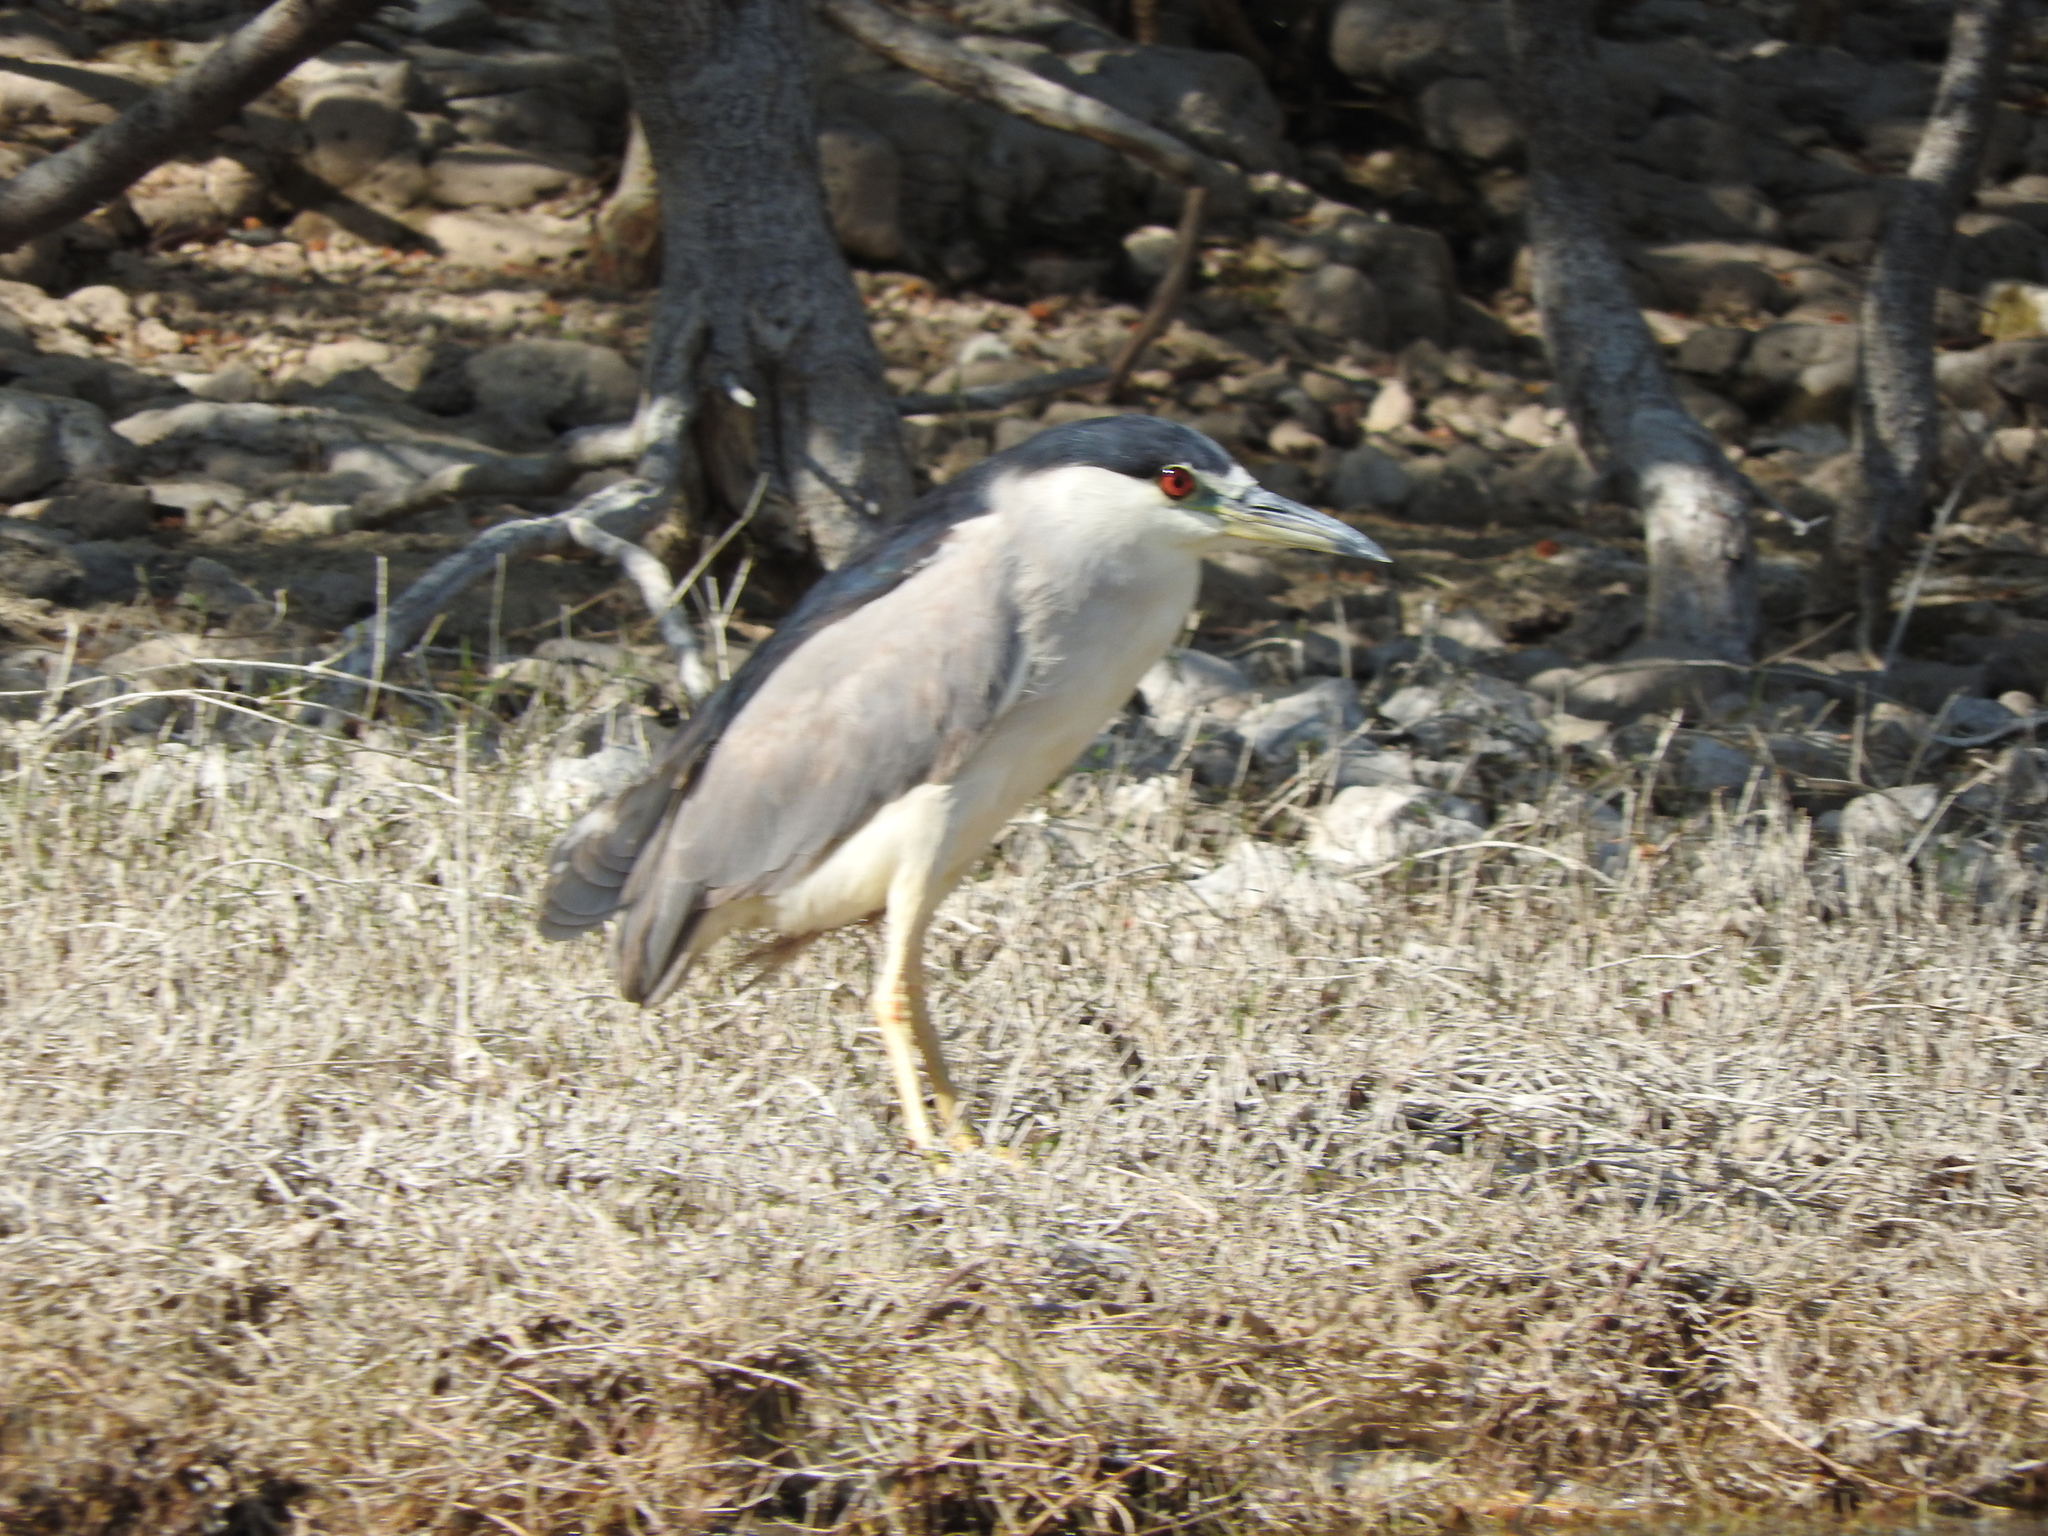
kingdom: Animalia
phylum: Chordata
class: Aves
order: Pelecaniformes
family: Ardeidae
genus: Nycticorax
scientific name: Nycticorax nycticorax
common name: Black-crowned night heron
